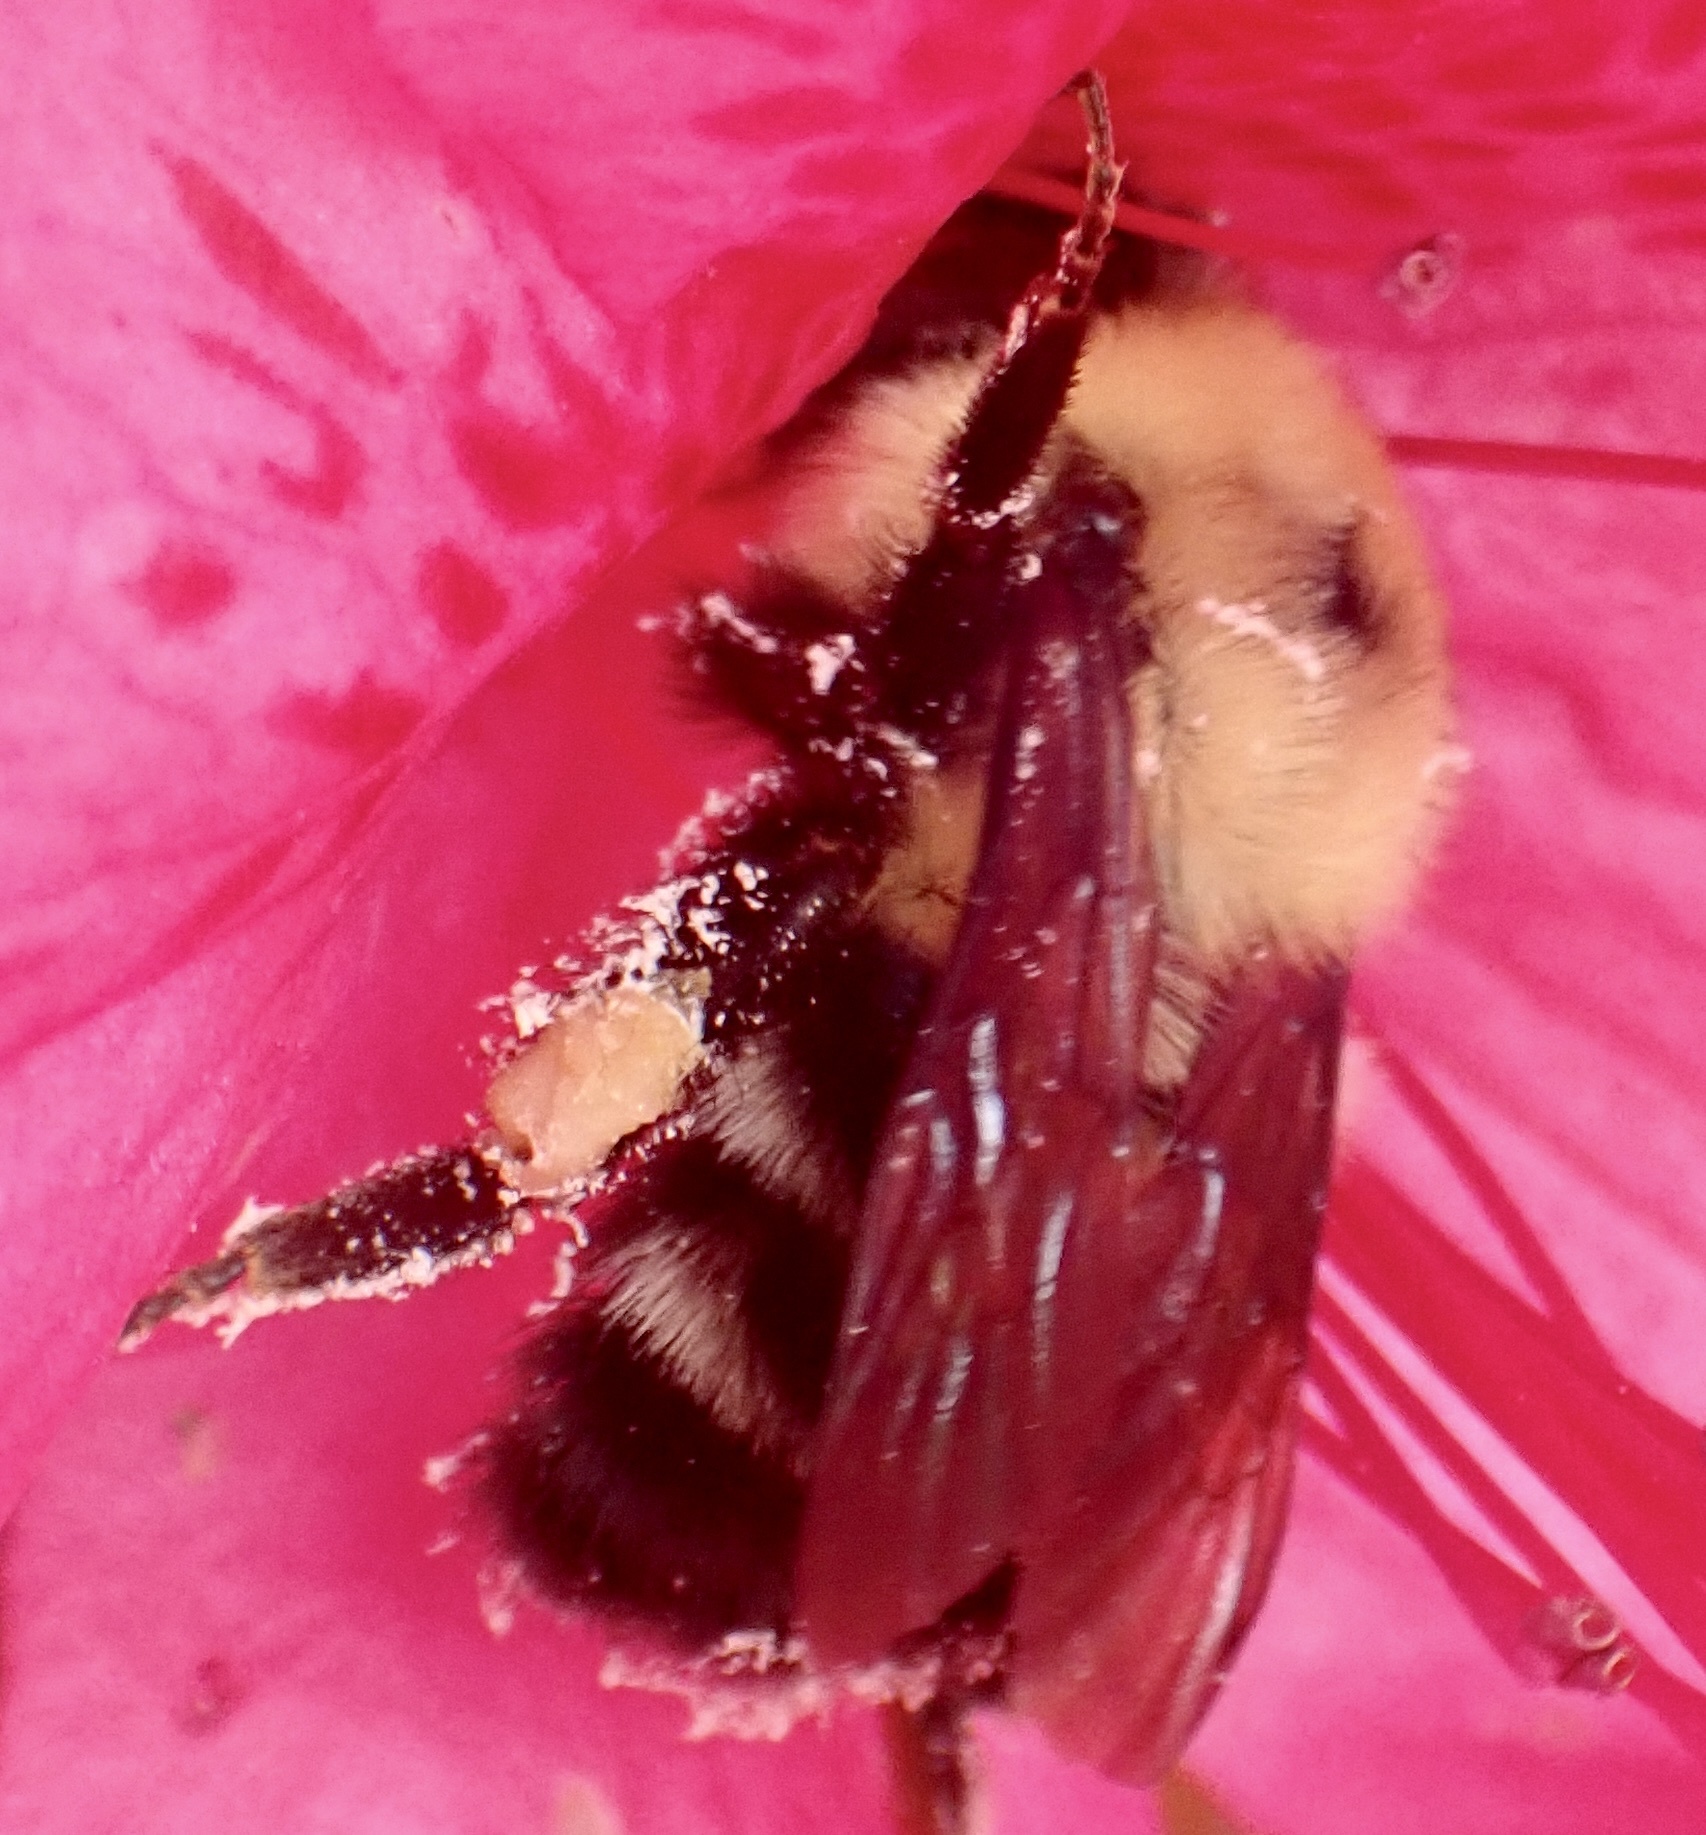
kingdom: Animalia
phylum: Arthropoda
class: Insecta
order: Hymenoptera
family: Apidae
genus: Bombus
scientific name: Bombus bimaculatus
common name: Two-spotted bumble bee
